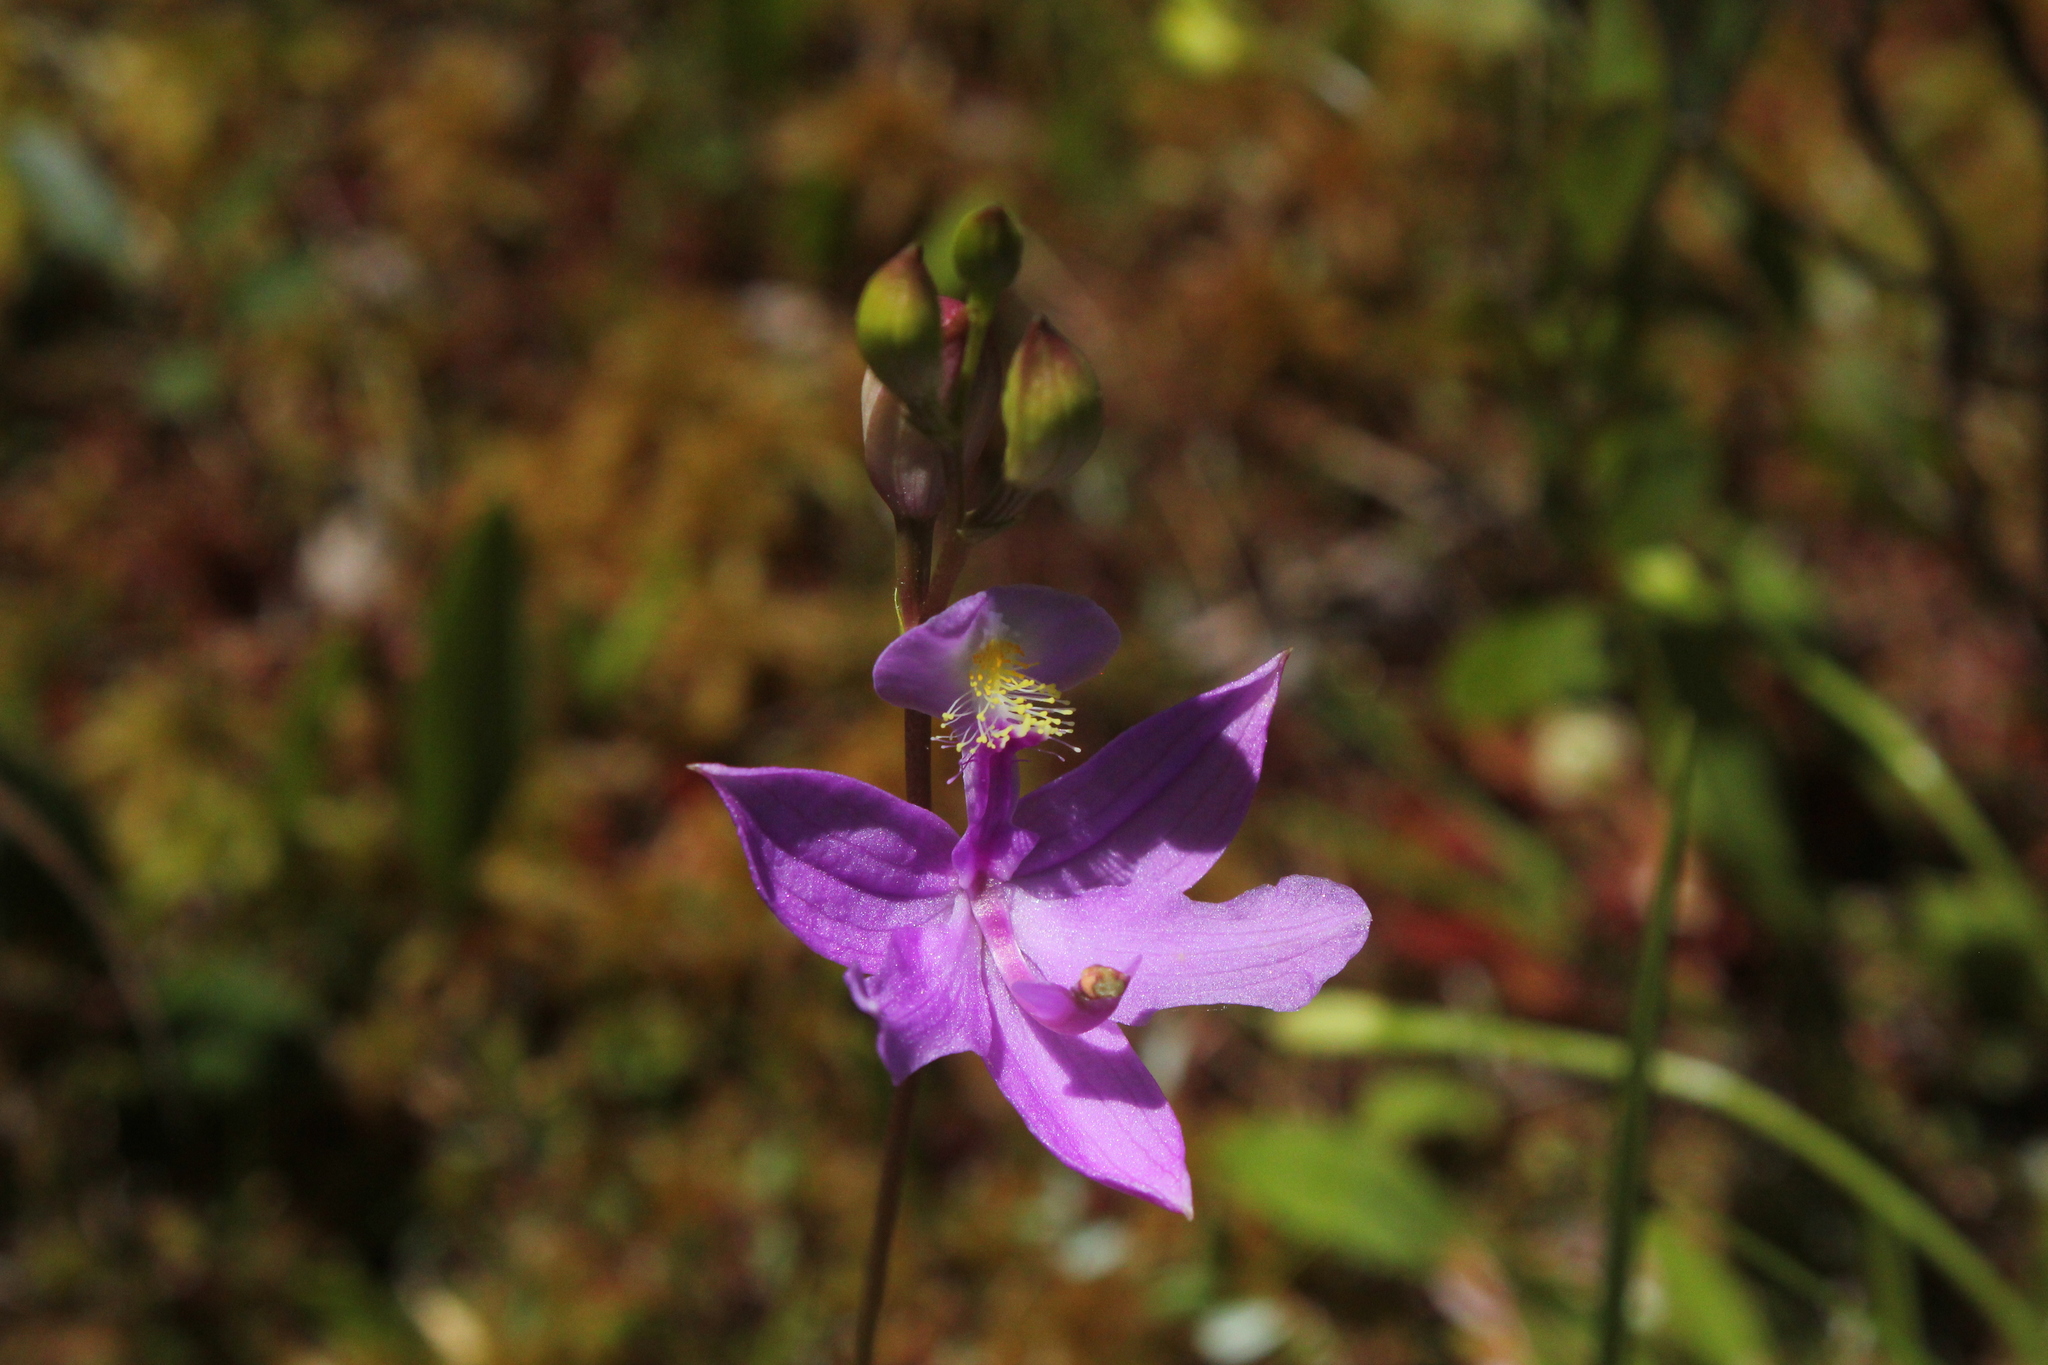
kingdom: Plantae
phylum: Tracheophyta
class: Liliopsida
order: Asparagales
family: Orchidaceae
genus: Calopogon
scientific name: Calopogon tuberosus
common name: Grass-pink
